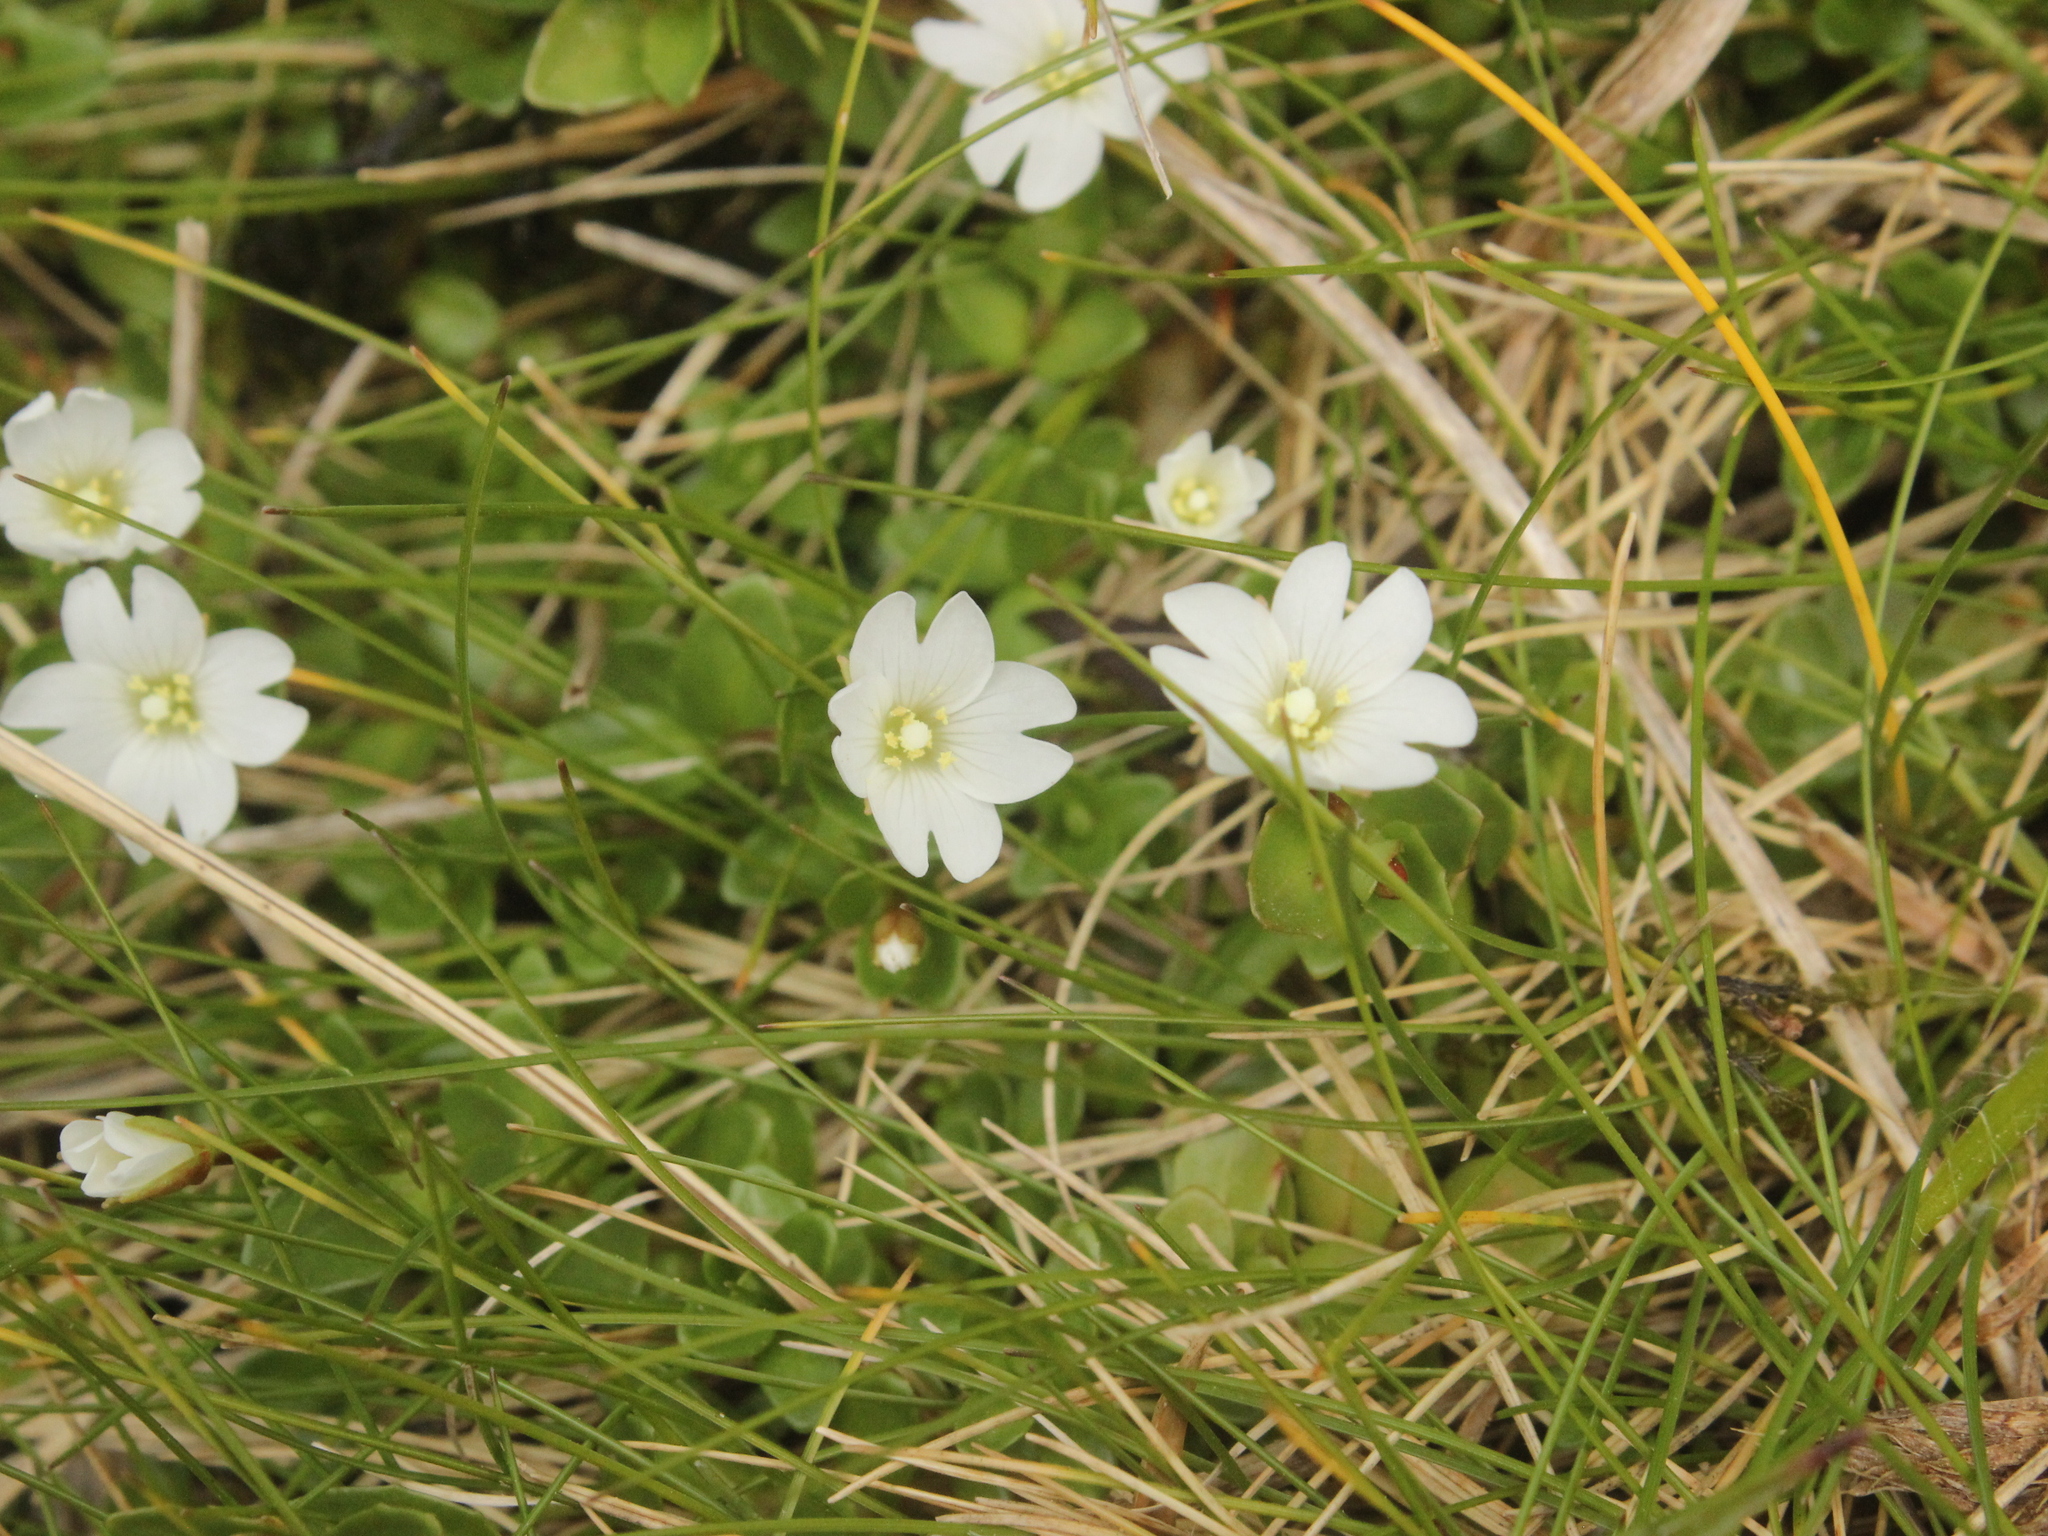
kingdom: Plantae
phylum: Tracheophyta
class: Magnoliopsida
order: Myrtales
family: Onagraceae
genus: Epilobium
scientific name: Epilobium alsinoides
